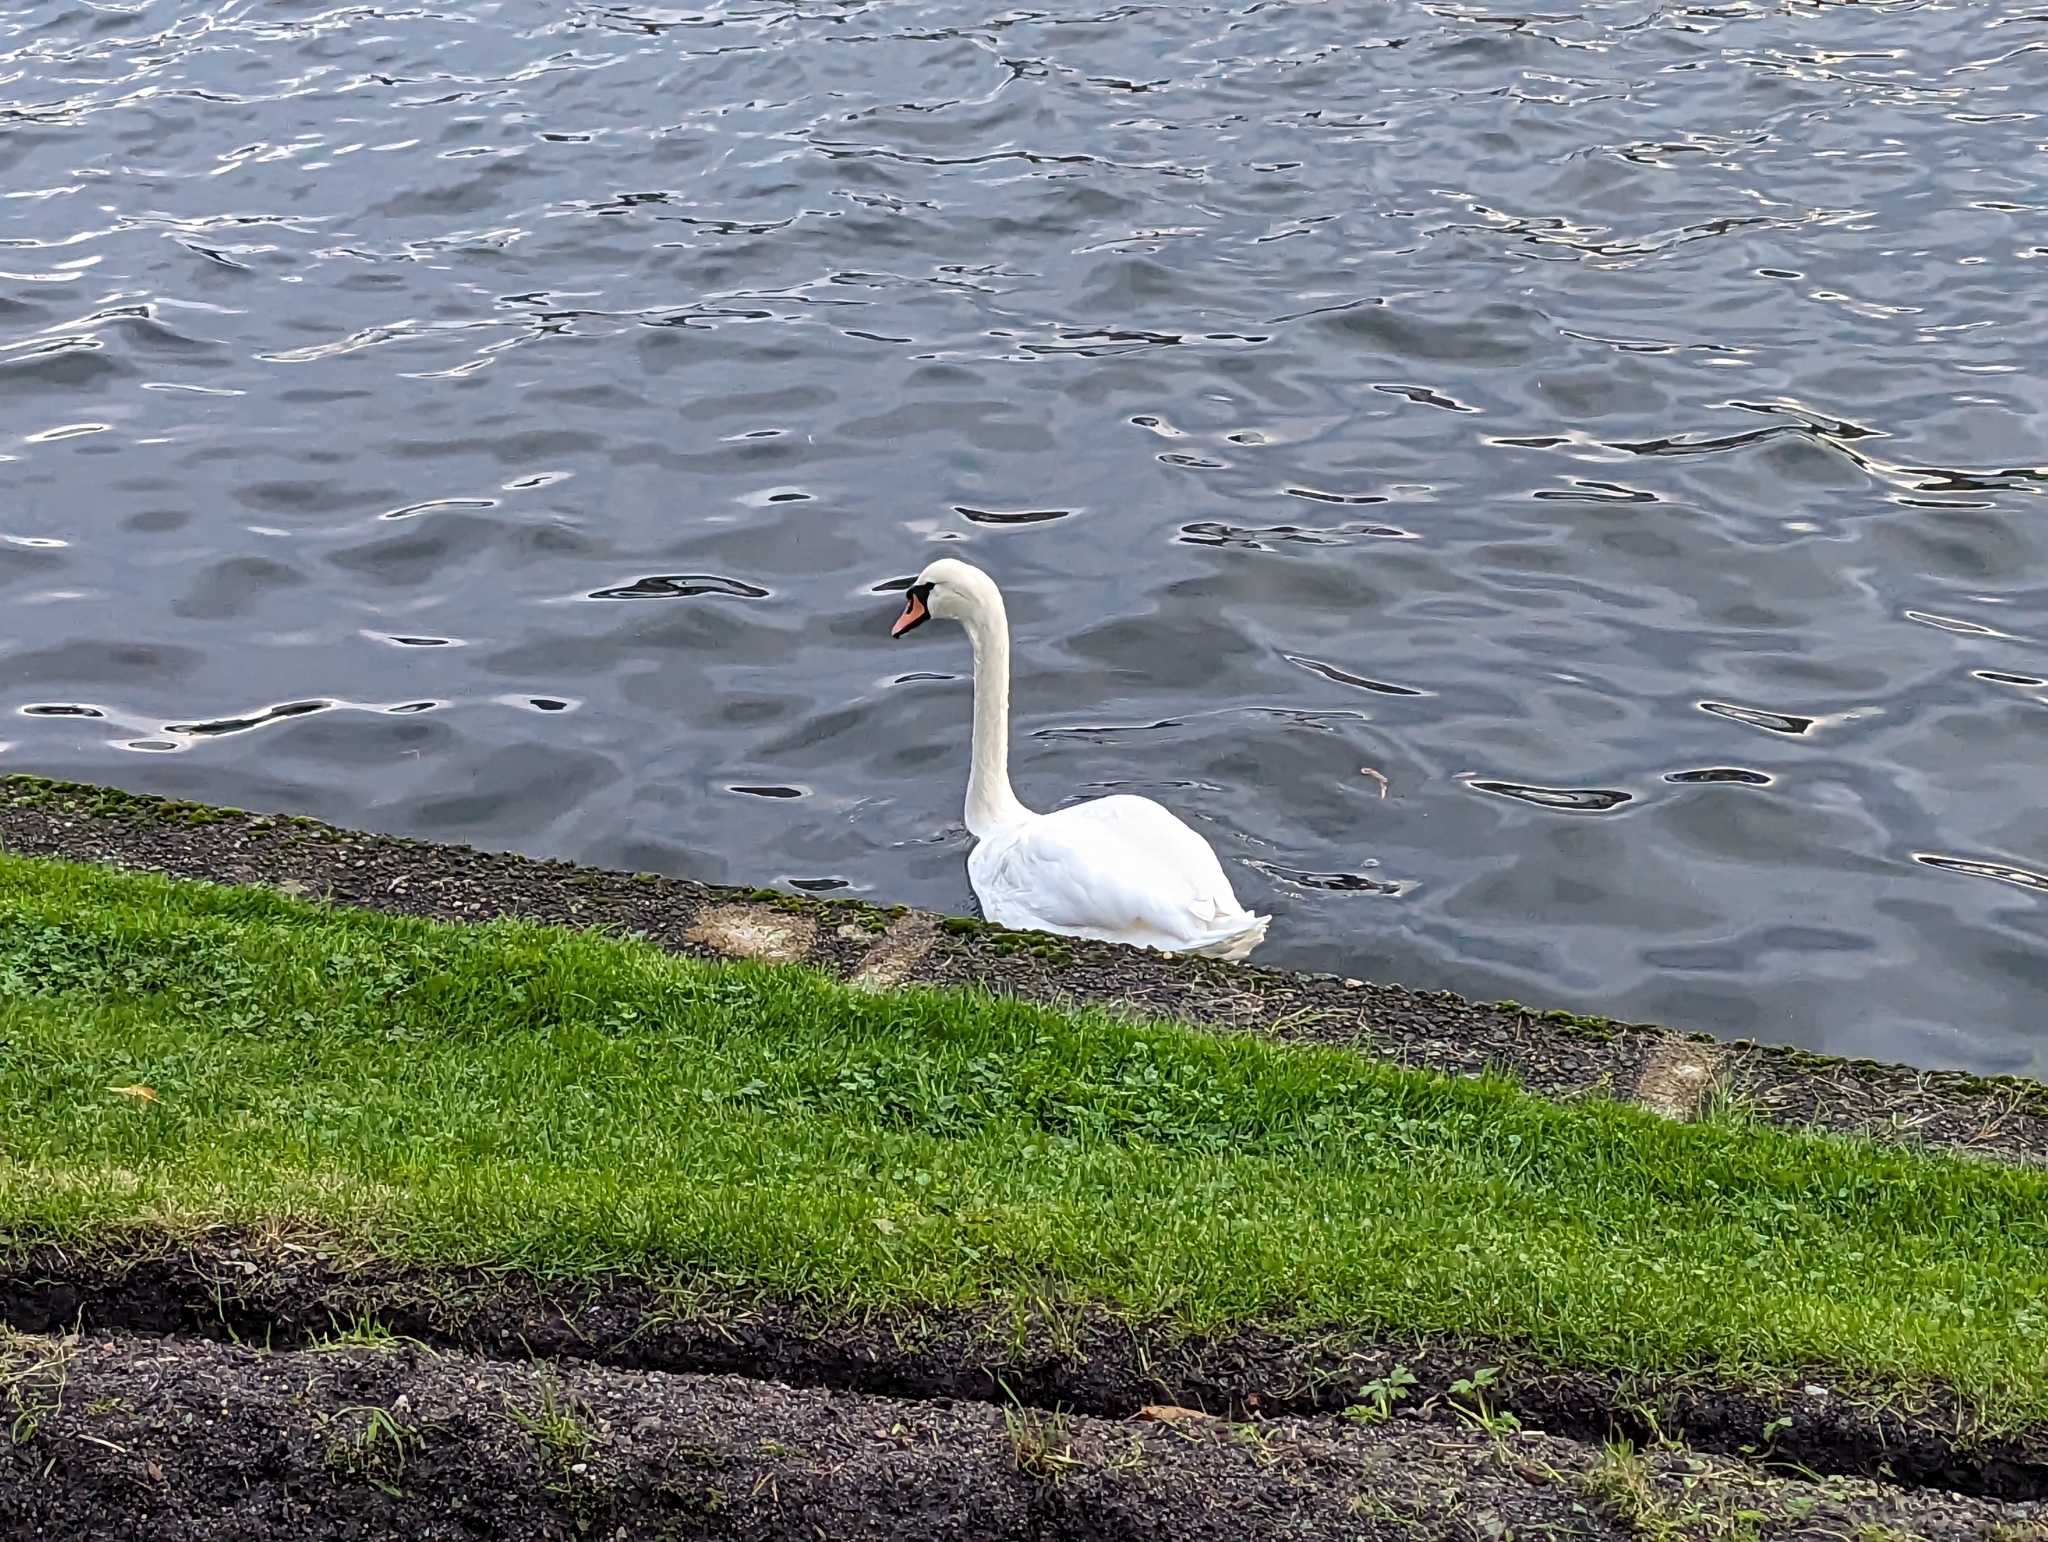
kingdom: Animalia
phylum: Chordata
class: Aves
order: Anseriformes
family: Anatidae
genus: Cygnus
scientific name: Cygnus olor
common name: Mute swan
